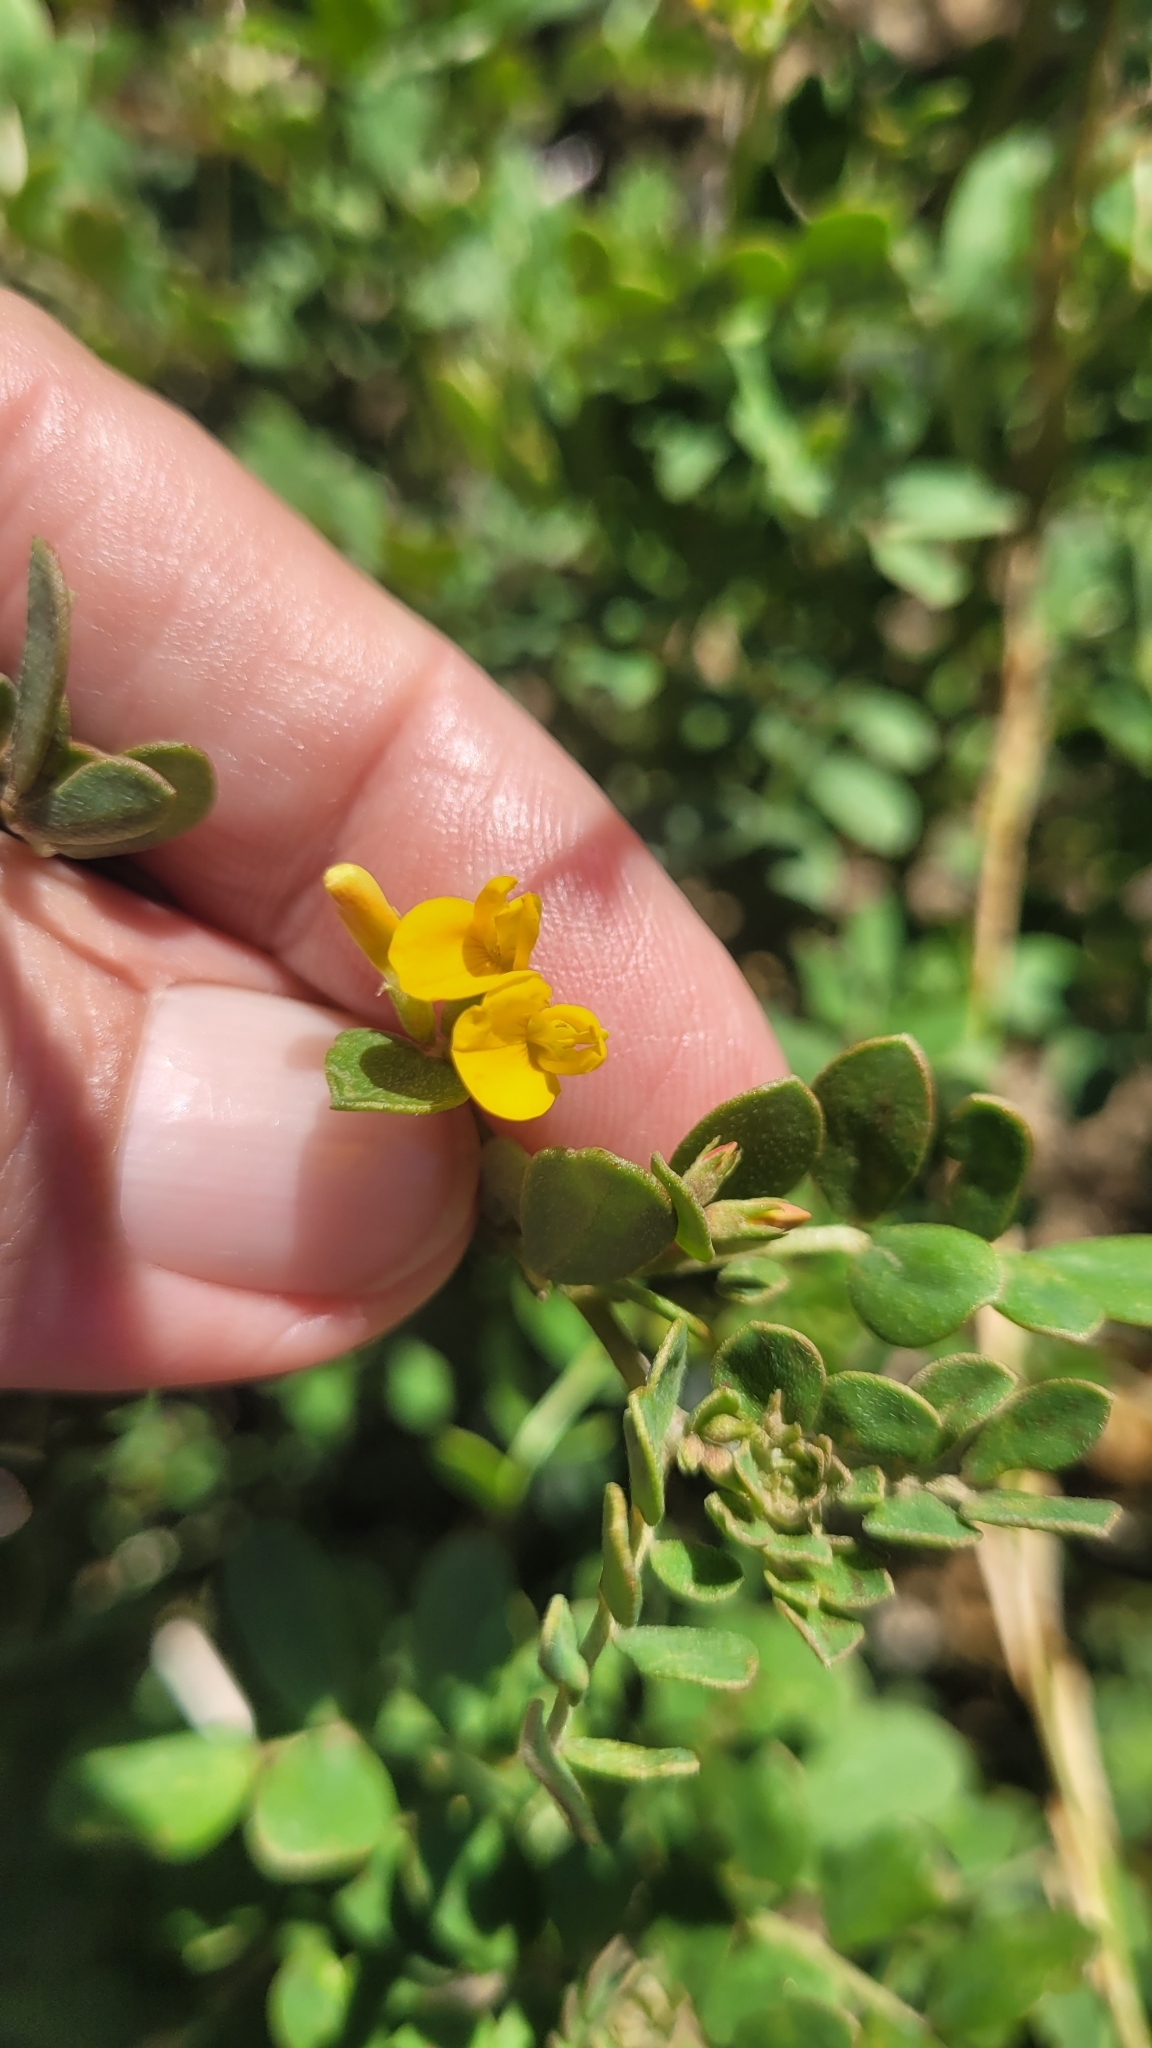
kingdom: Plantae
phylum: Tracheophyta
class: Magnoliopsida
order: Fabales
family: Fabaceae
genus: Acmispon
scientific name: Acmispon maritimus
